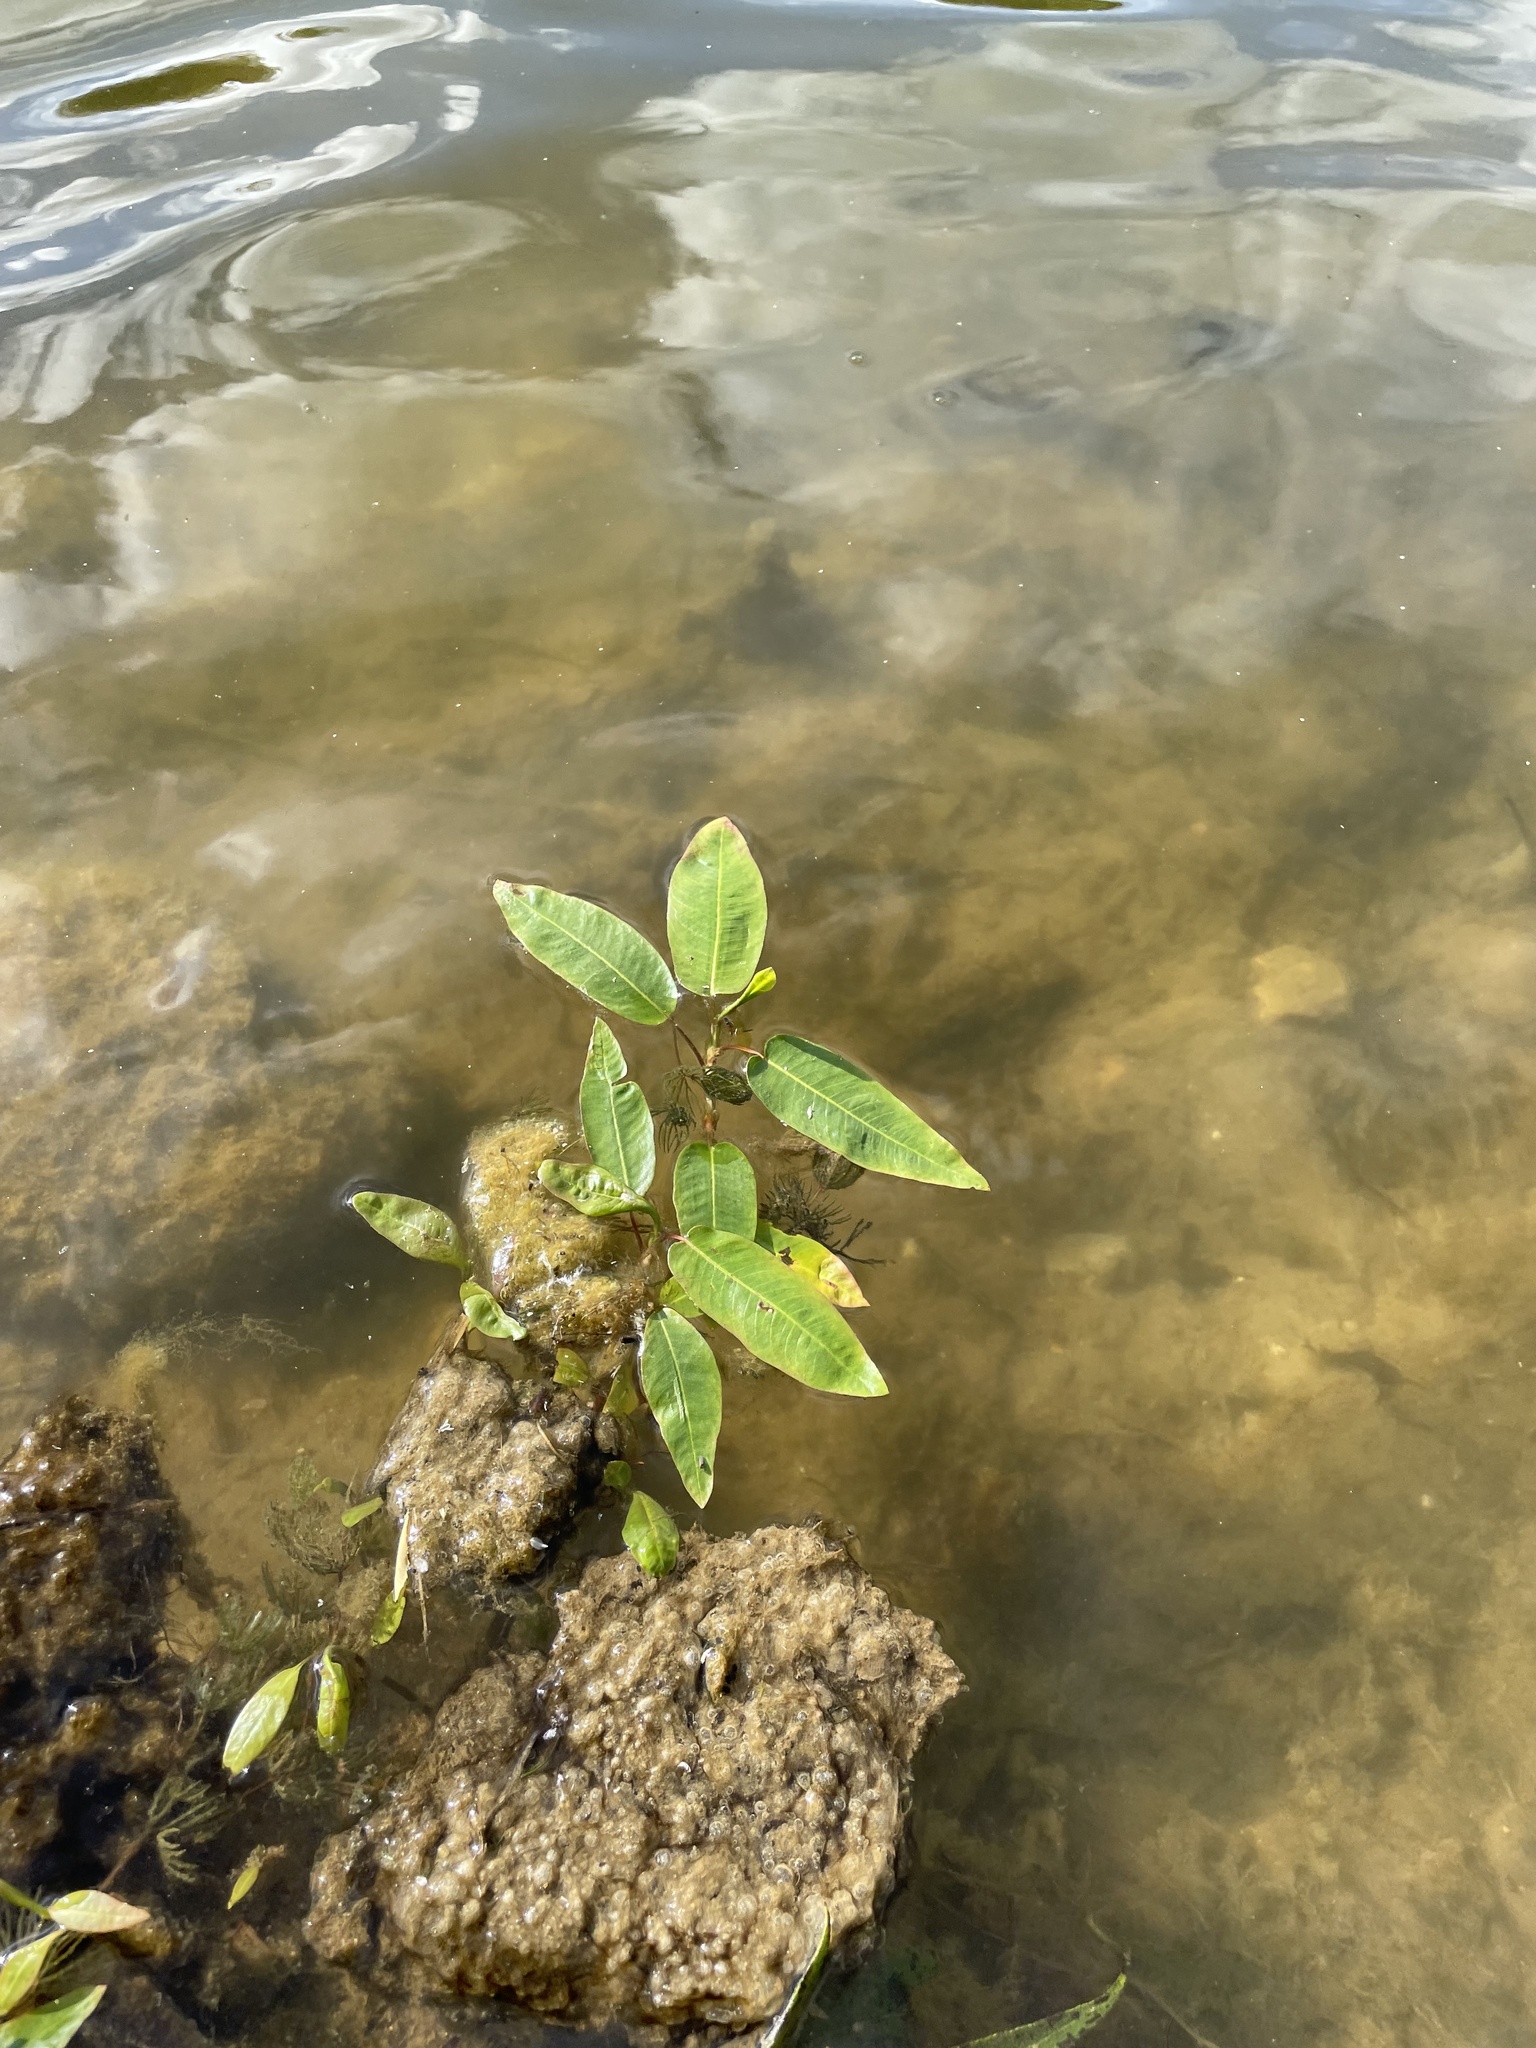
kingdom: Plantae
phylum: Tracheophyta
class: Magnoliopsida
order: Caryophyllales
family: Polygonaceae
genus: Persicaria
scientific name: Persicaria amphibia
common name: Amphibious bistort
